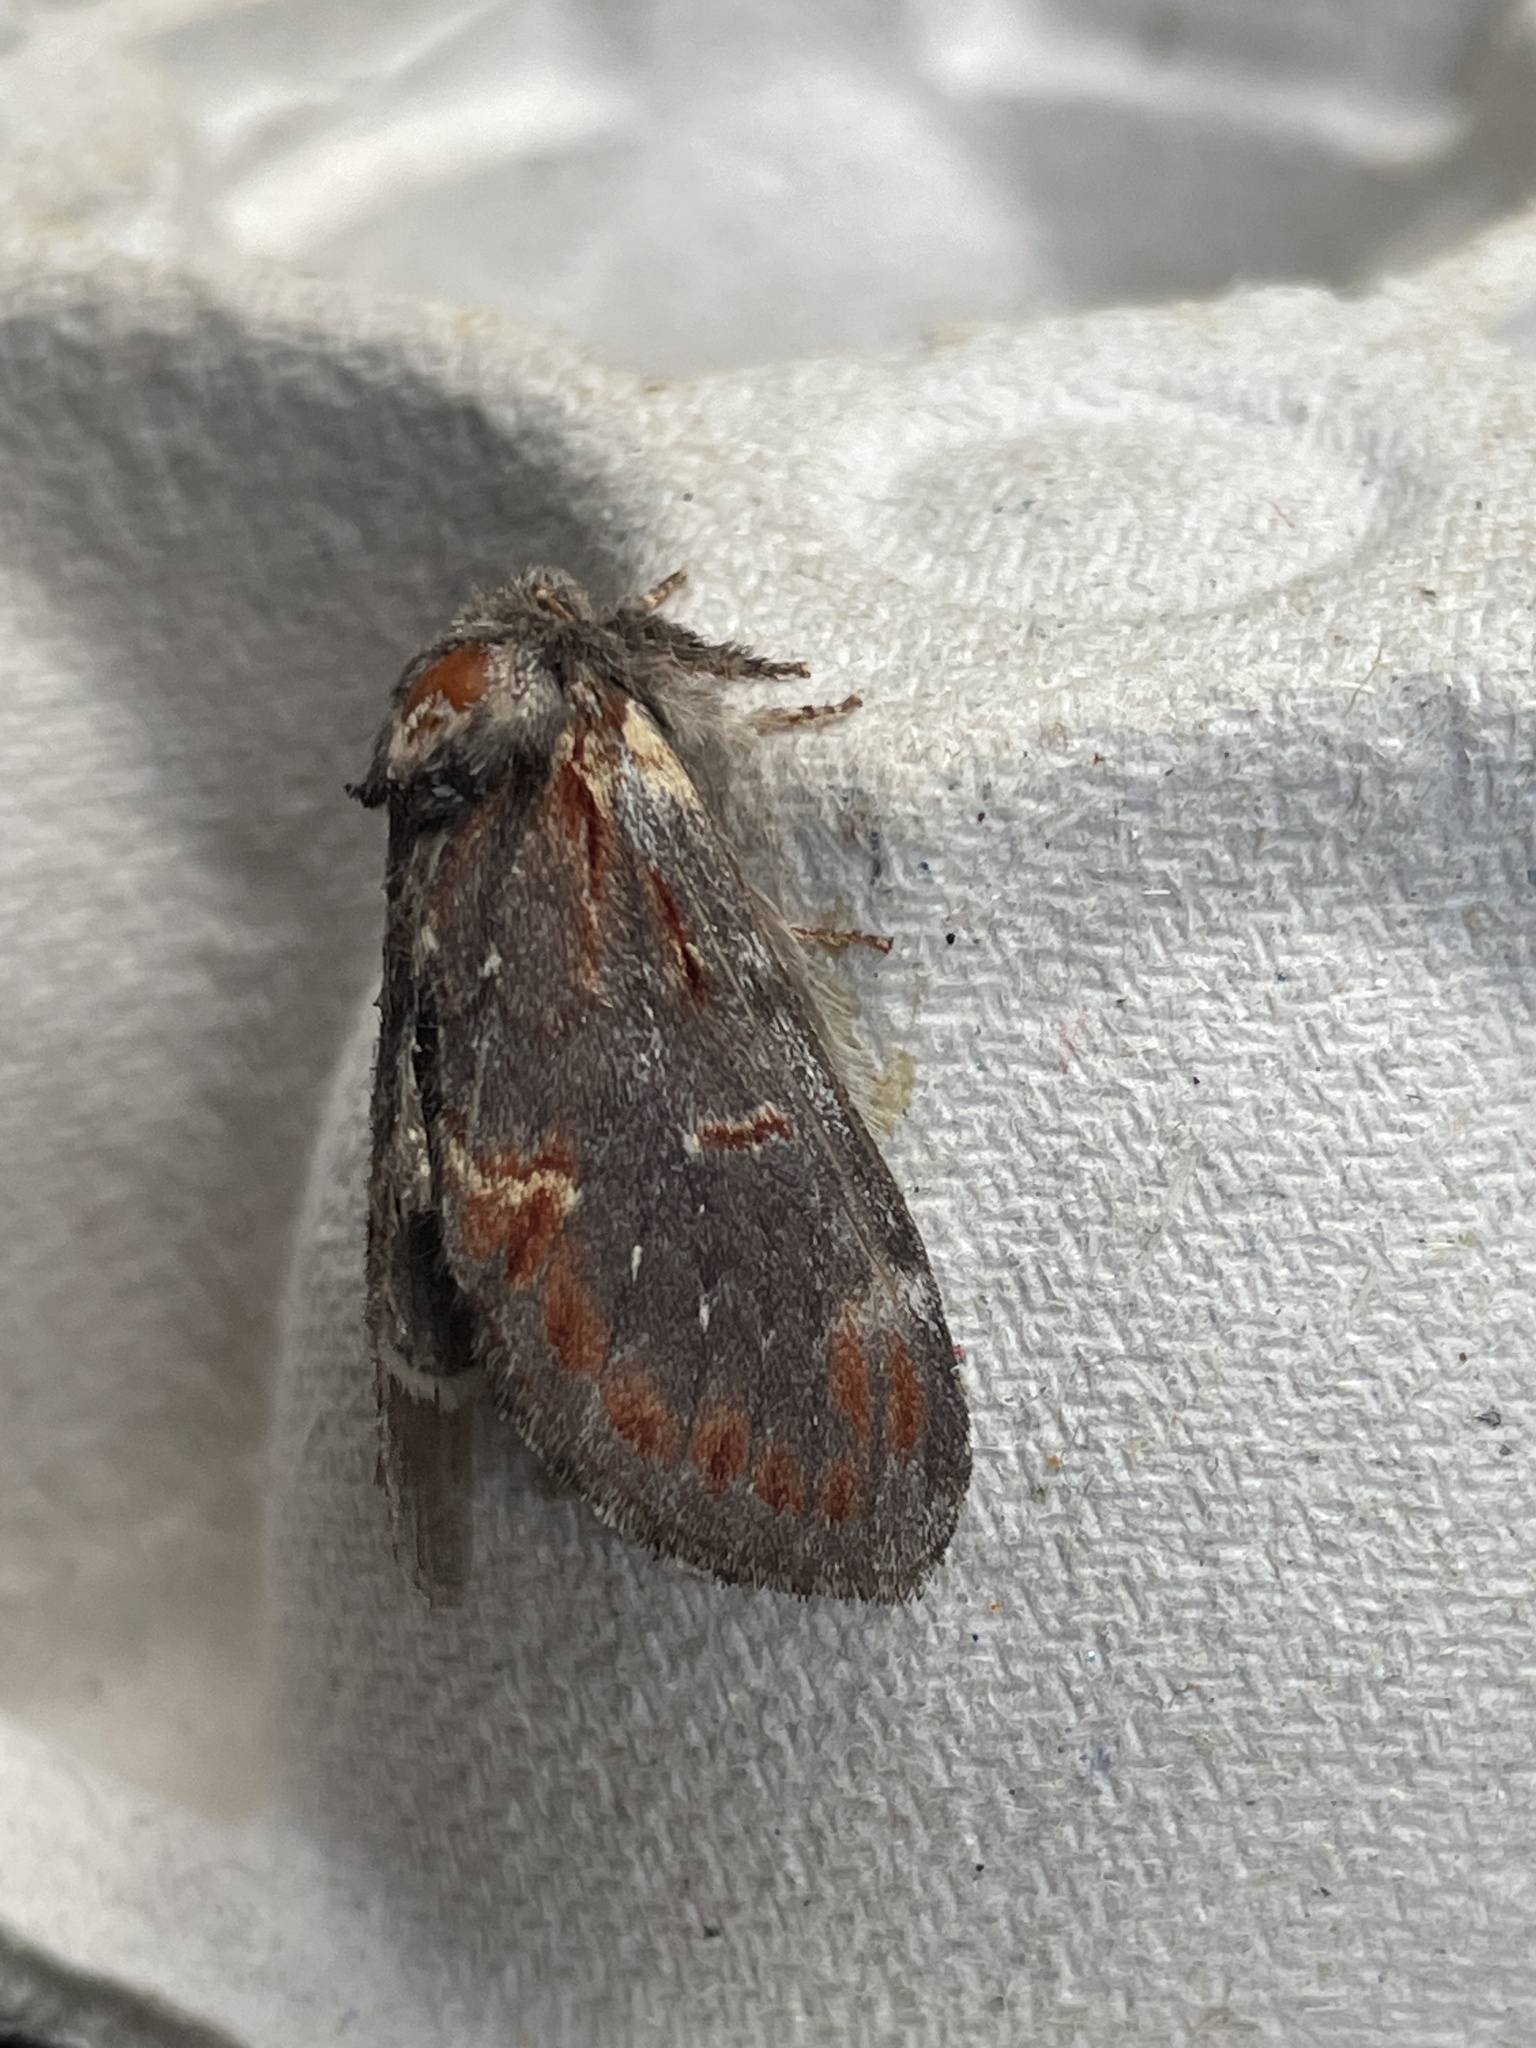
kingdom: Animalia
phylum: Arthropoda
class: Insecta
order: Lepidoptera
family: Notodontidae
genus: Notodonta
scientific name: Notodonta dromedarius
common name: Iron prominent
